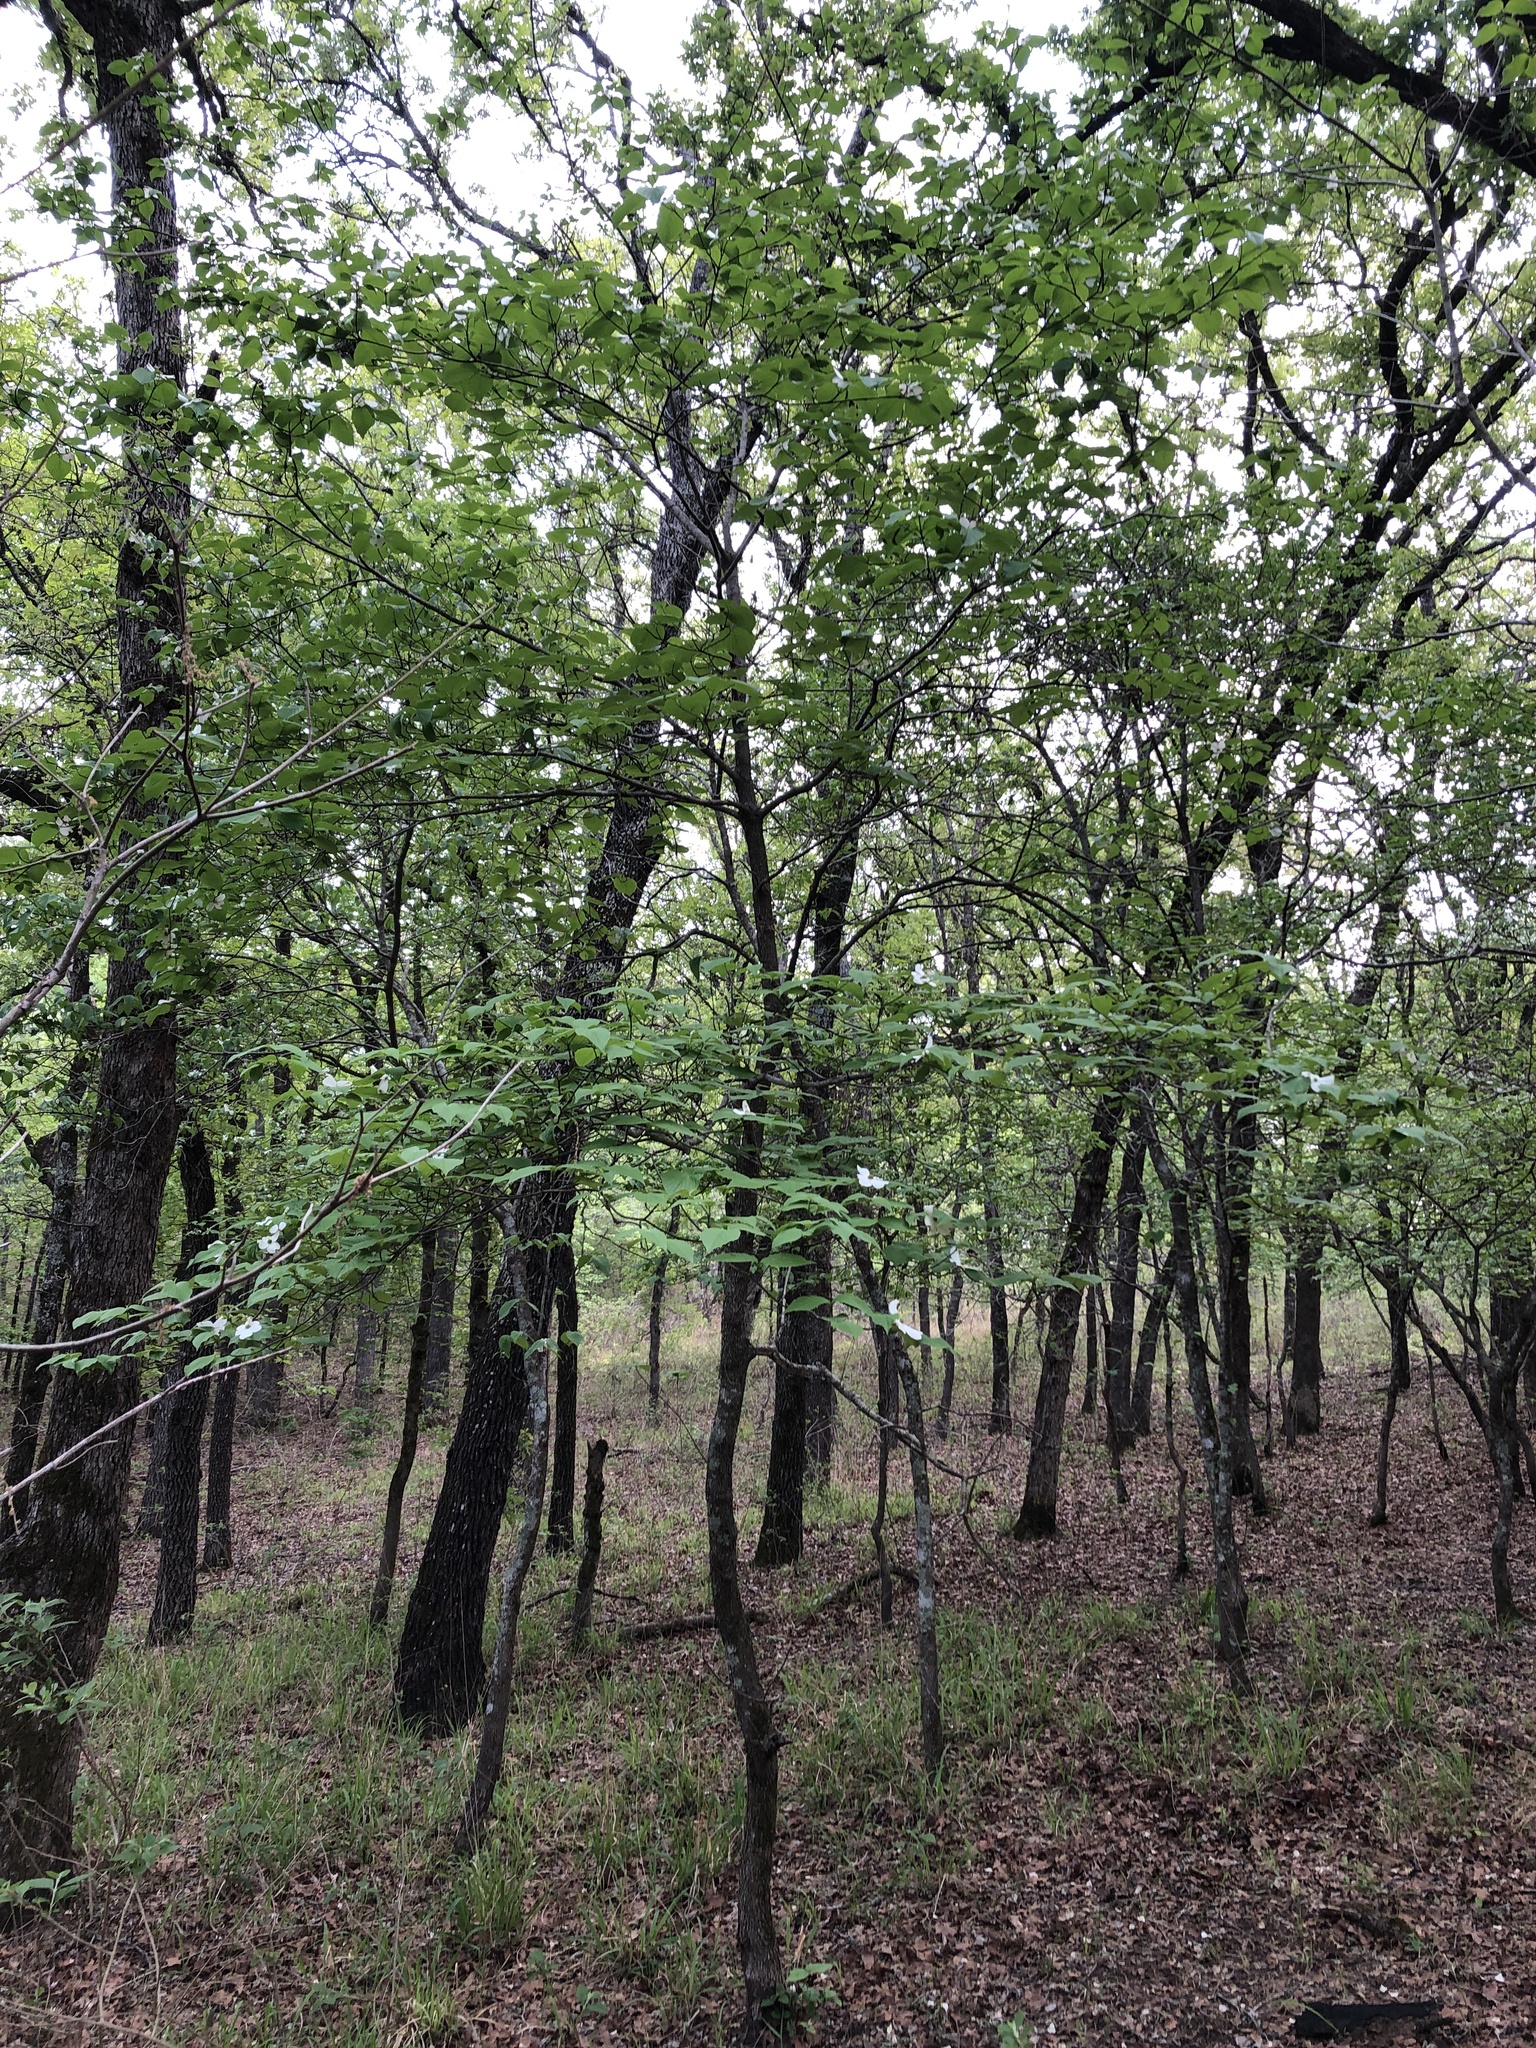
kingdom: Plantae
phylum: Tracheophyta
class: Magnoliopsida
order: Cornales
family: Cornaceae
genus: Cornus
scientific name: Cornus florida
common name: Flowering dogwood
